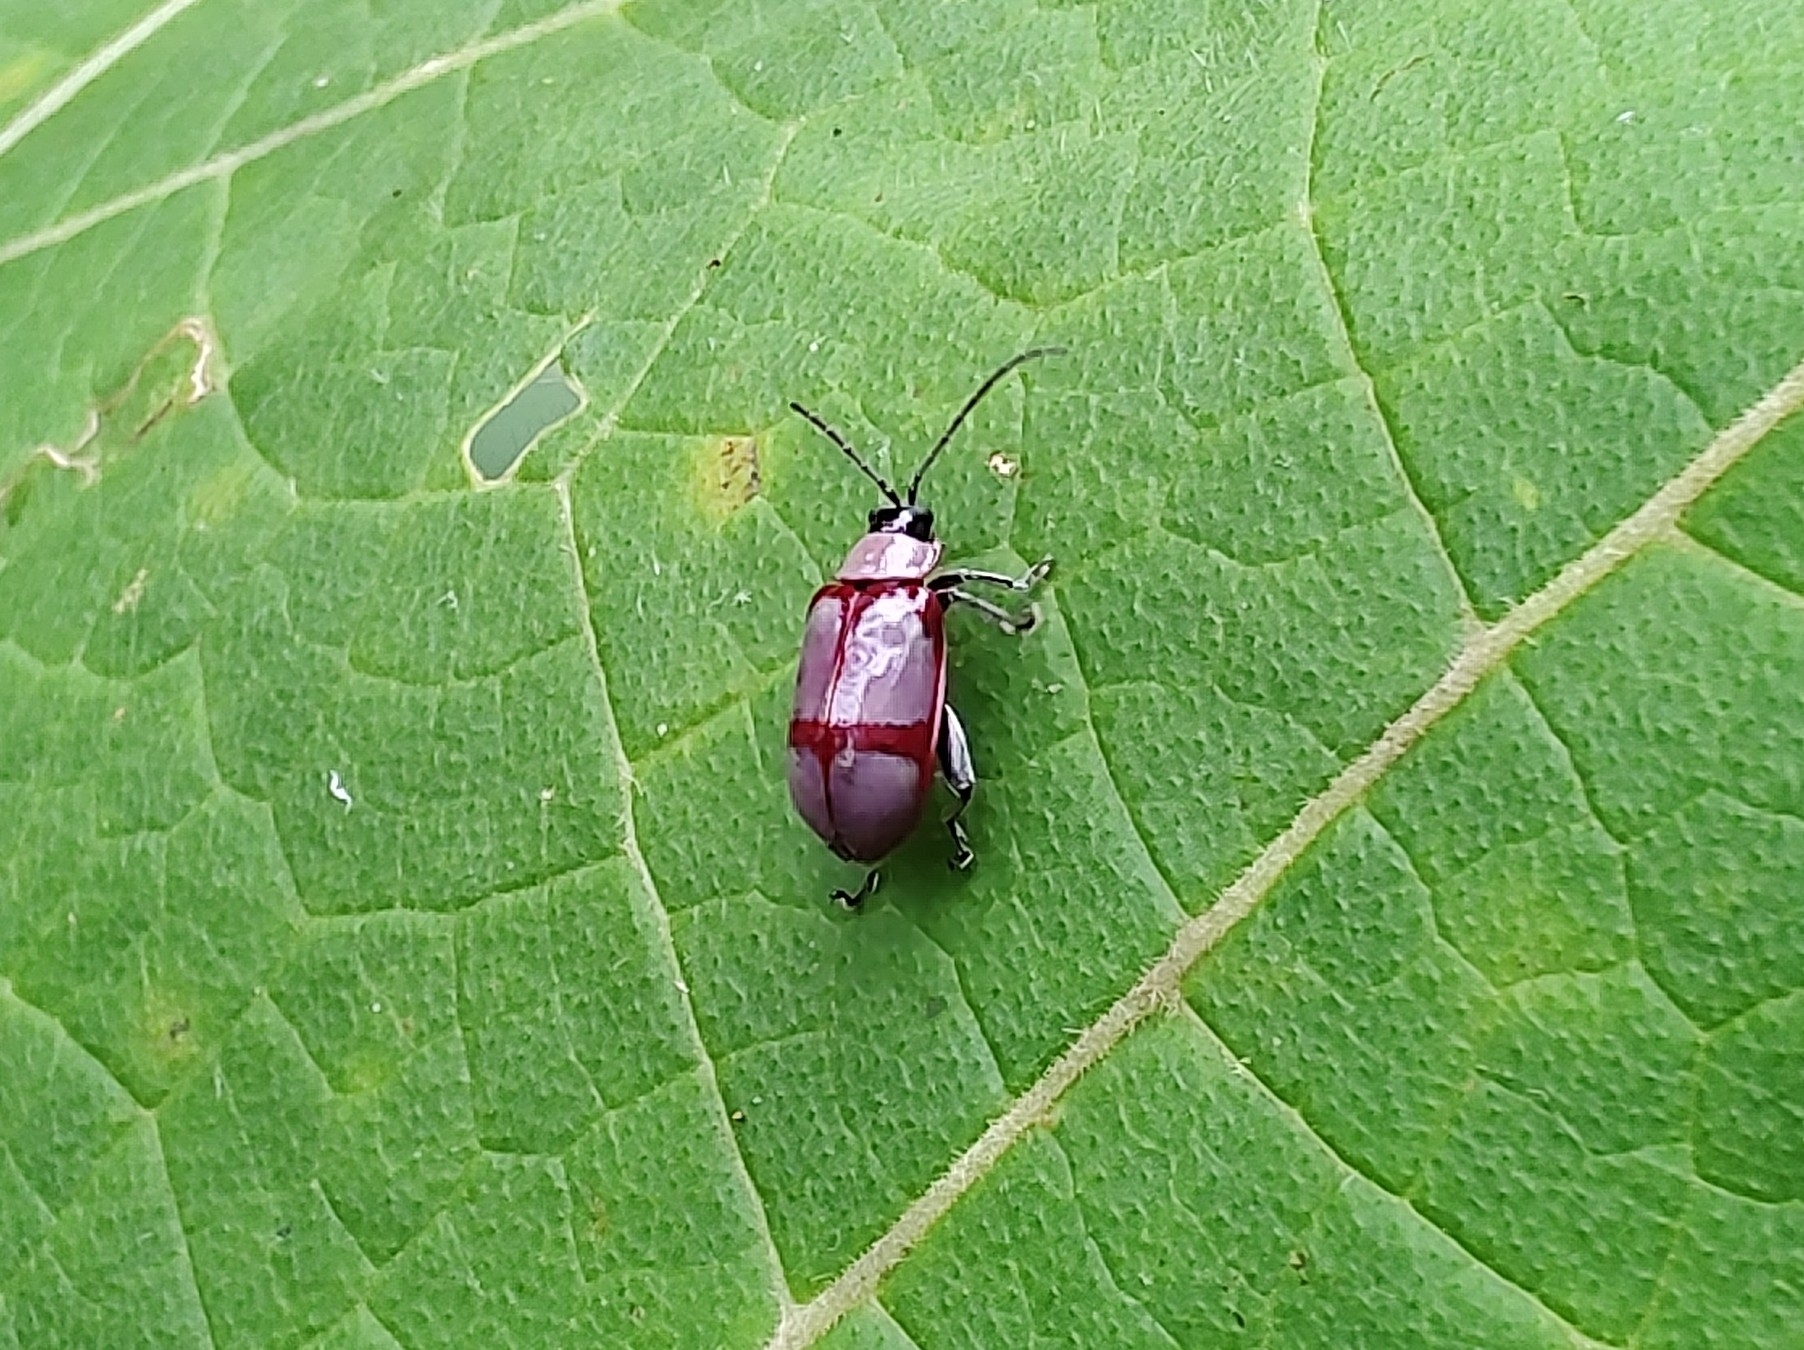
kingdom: Animalia
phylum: Arthropoda
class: Insecta
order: Coleoptera
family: Chrysomelidae
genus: Omophoita
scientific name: Omophoita
